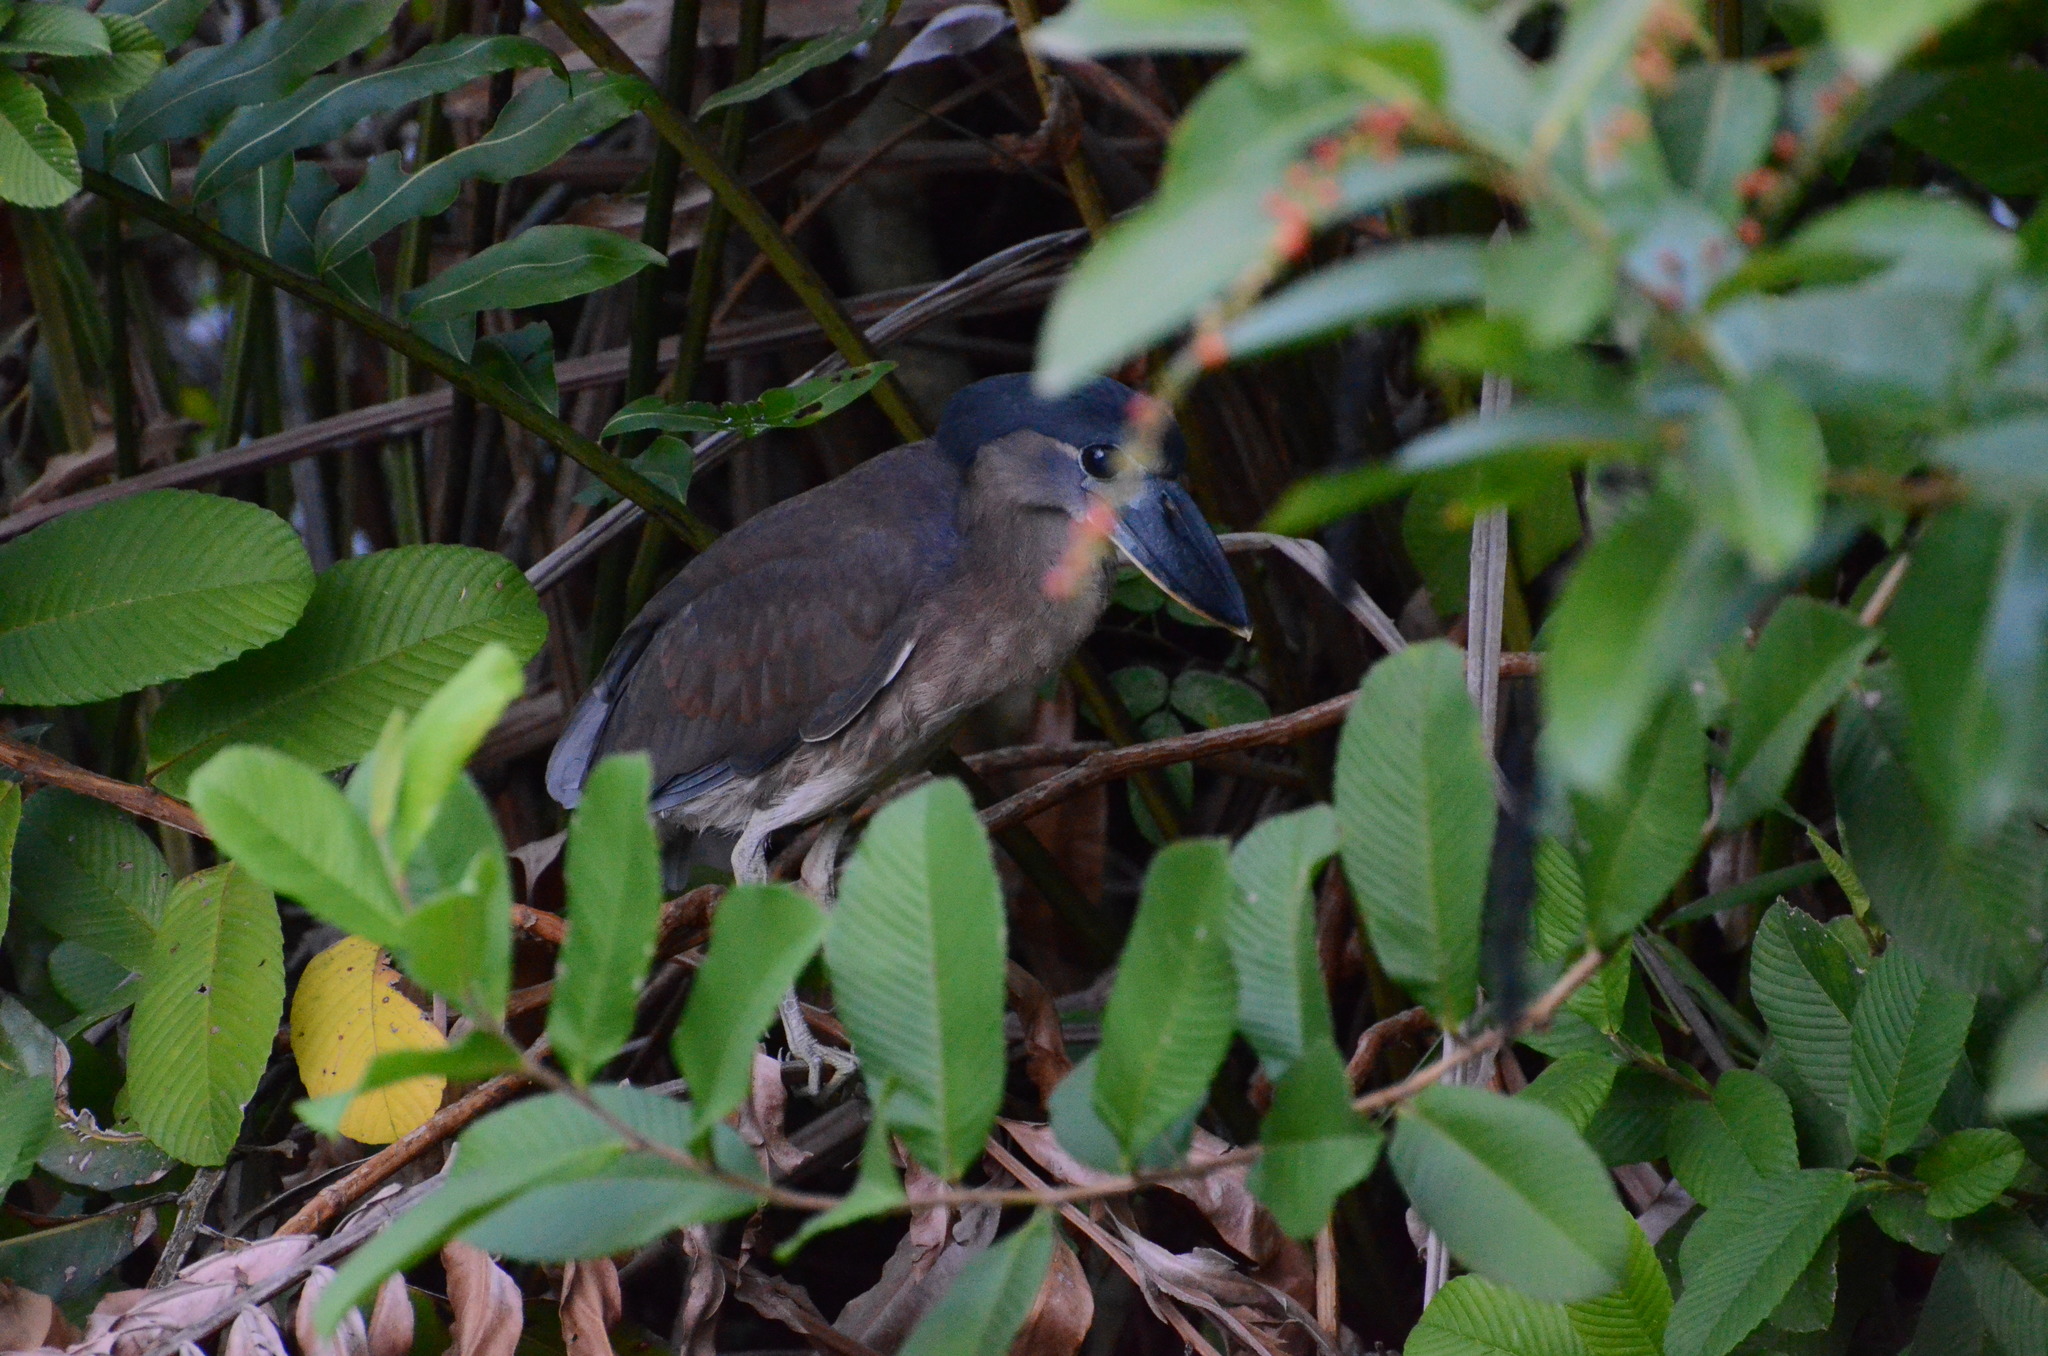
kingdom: Animalia
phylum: Chordata
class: Aves
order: Pelecaniformes
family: Ardeidae
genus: Cochlearius
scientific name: Cochlearius cochlearius
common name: Boat-billed heron
